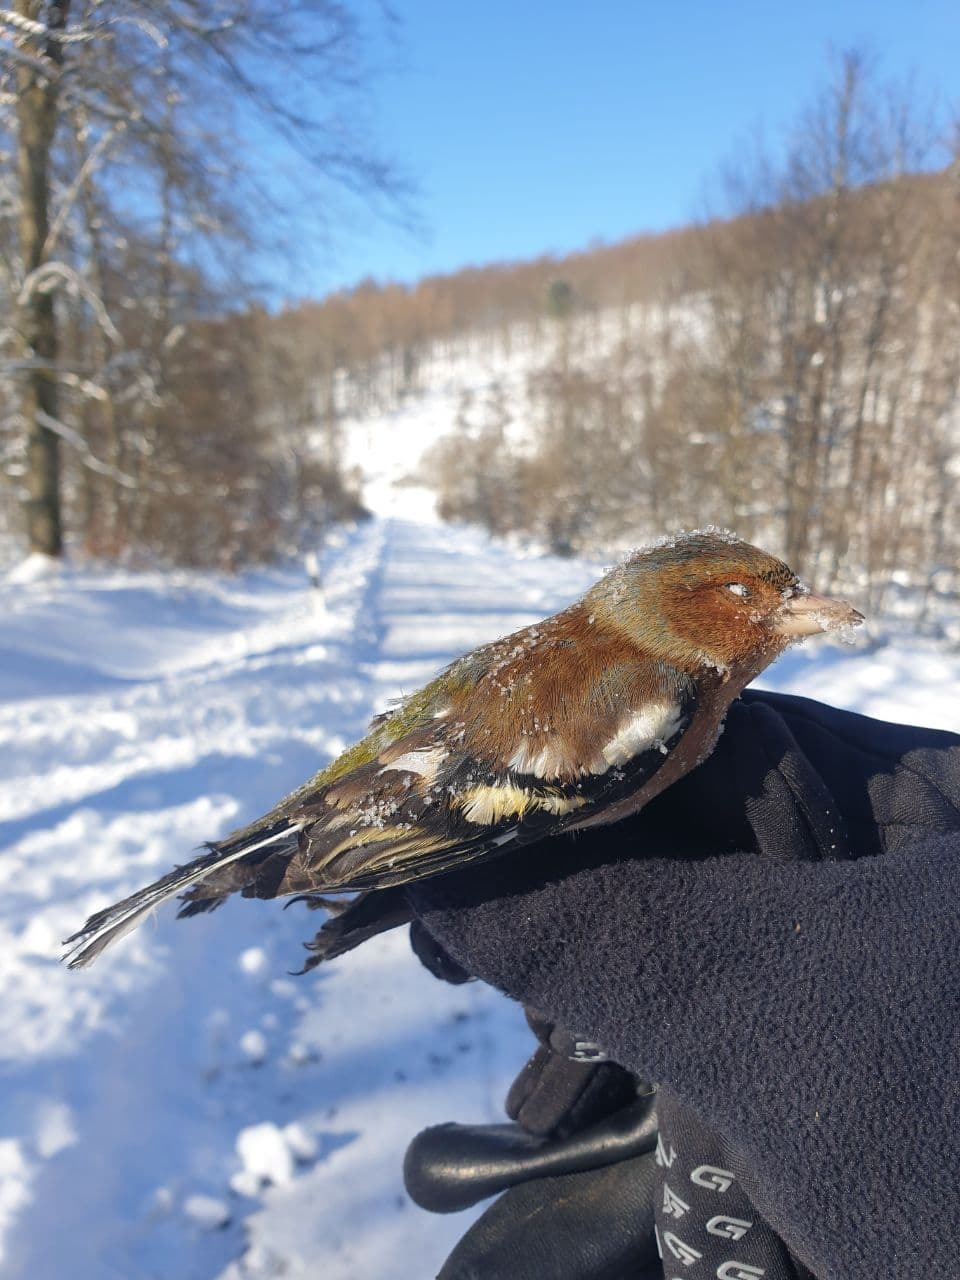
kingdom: Animalia
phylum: Chordata
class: Aves
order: Passeriformes
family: Fringillidae
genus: Fringilla
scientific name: Fringilla coelebs
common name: Common chaffinch
